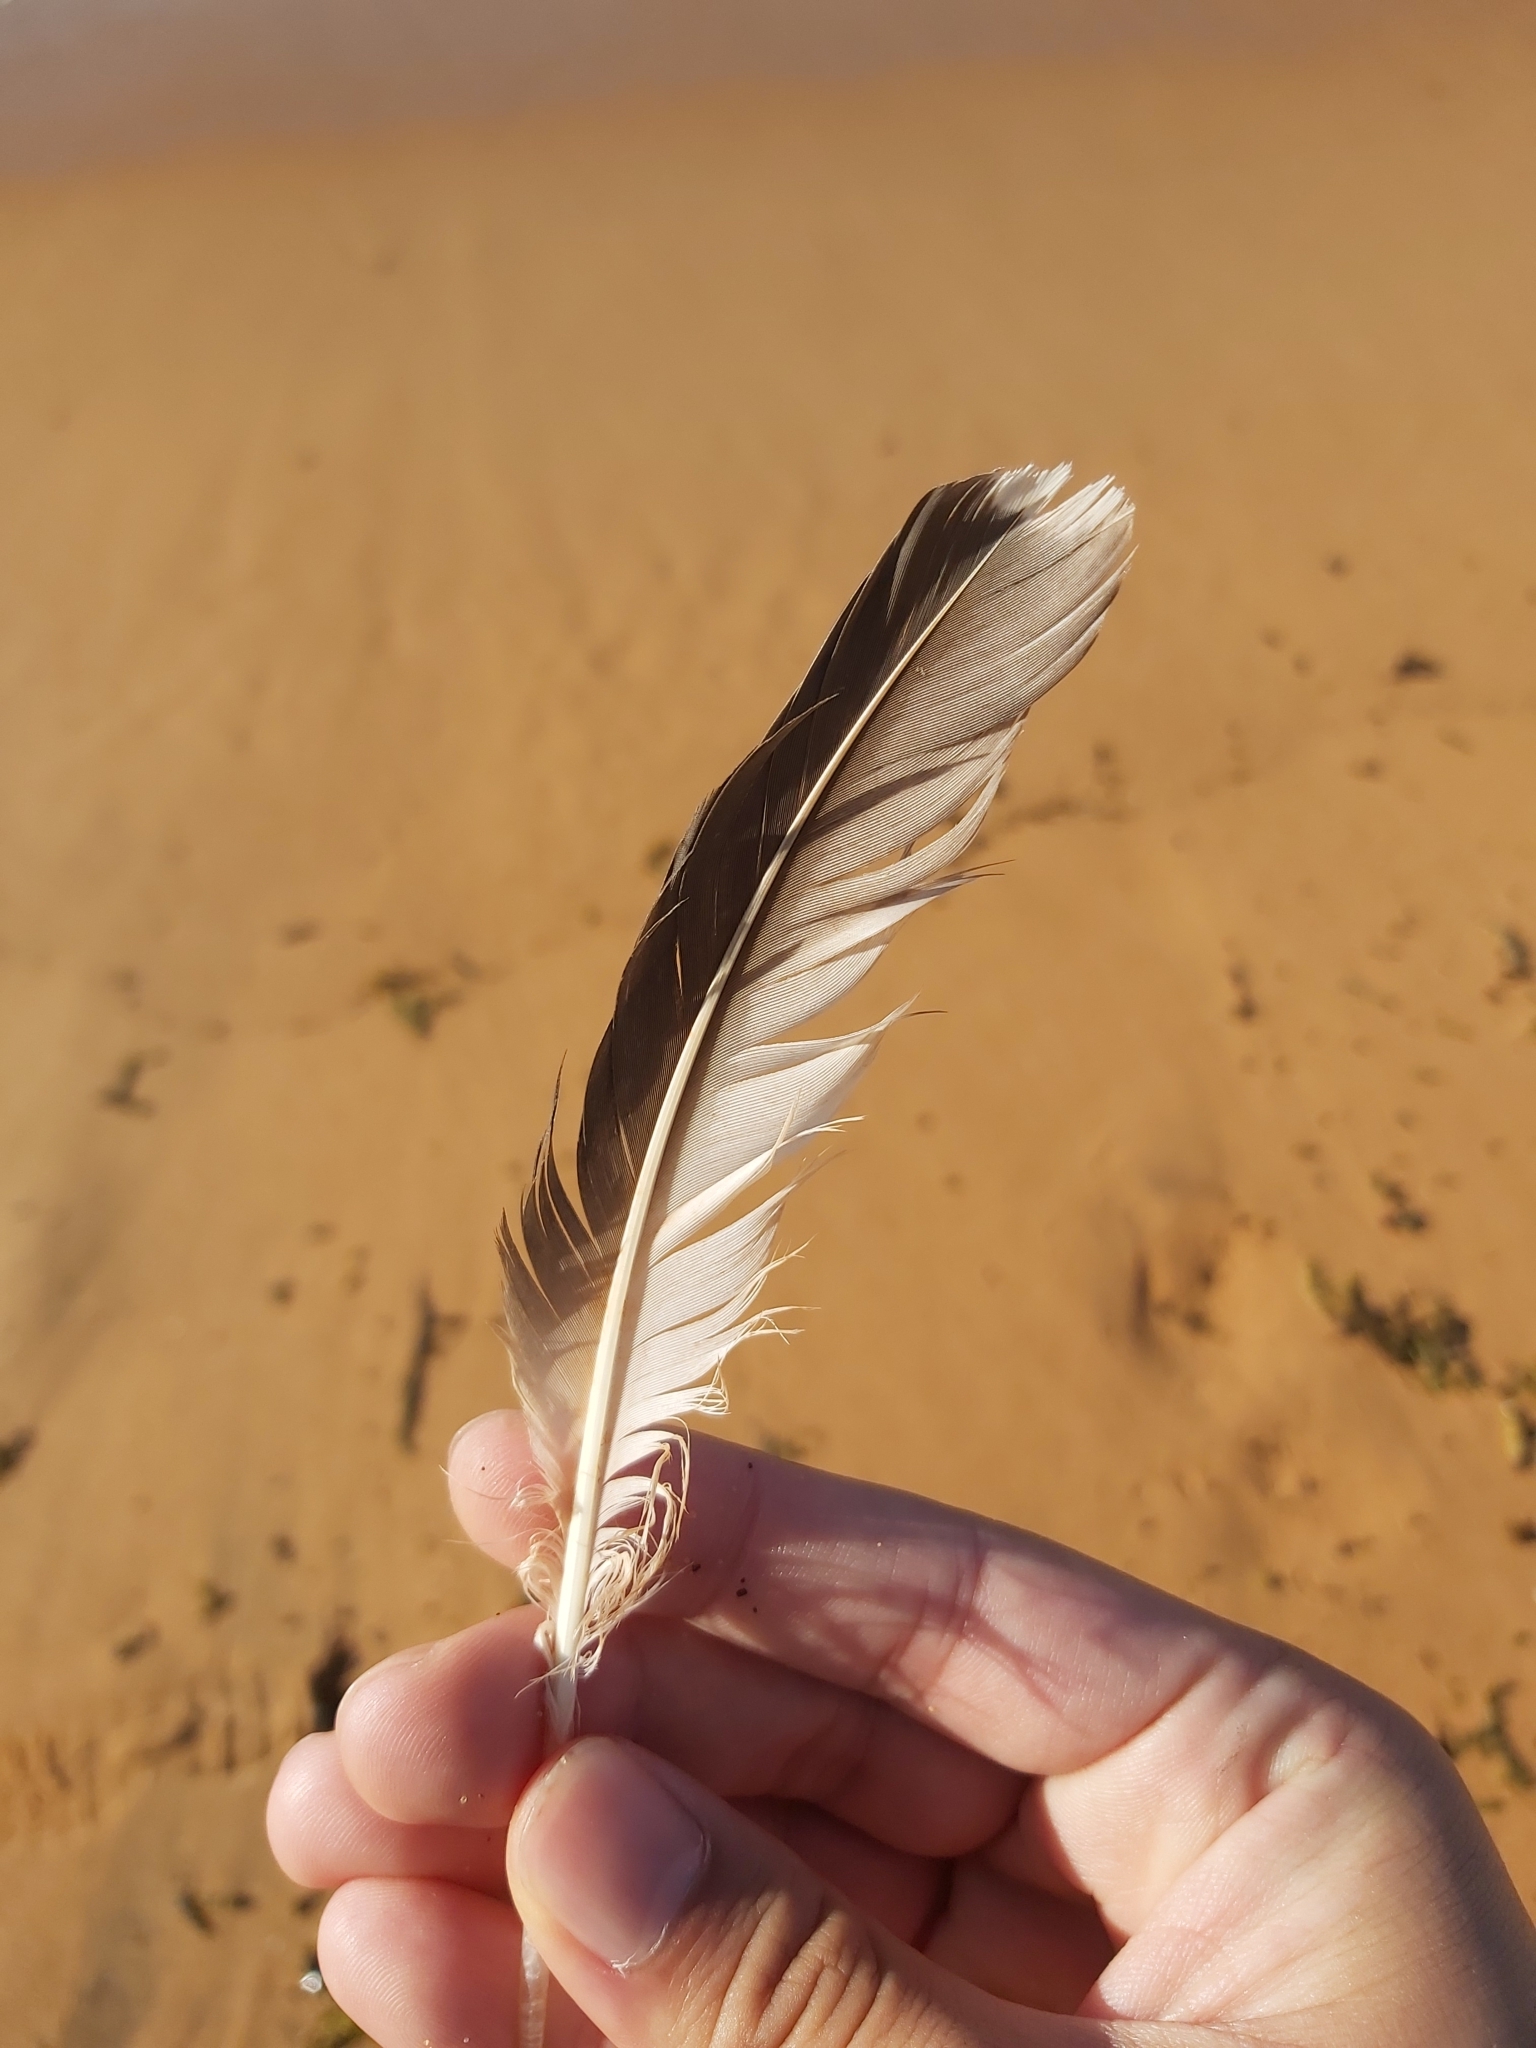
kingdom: Animalia
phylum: Chordata
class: Aves
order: Suliformes
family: Sulidae
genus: Morus
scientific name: Morus serrator
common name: Australasian gannet
